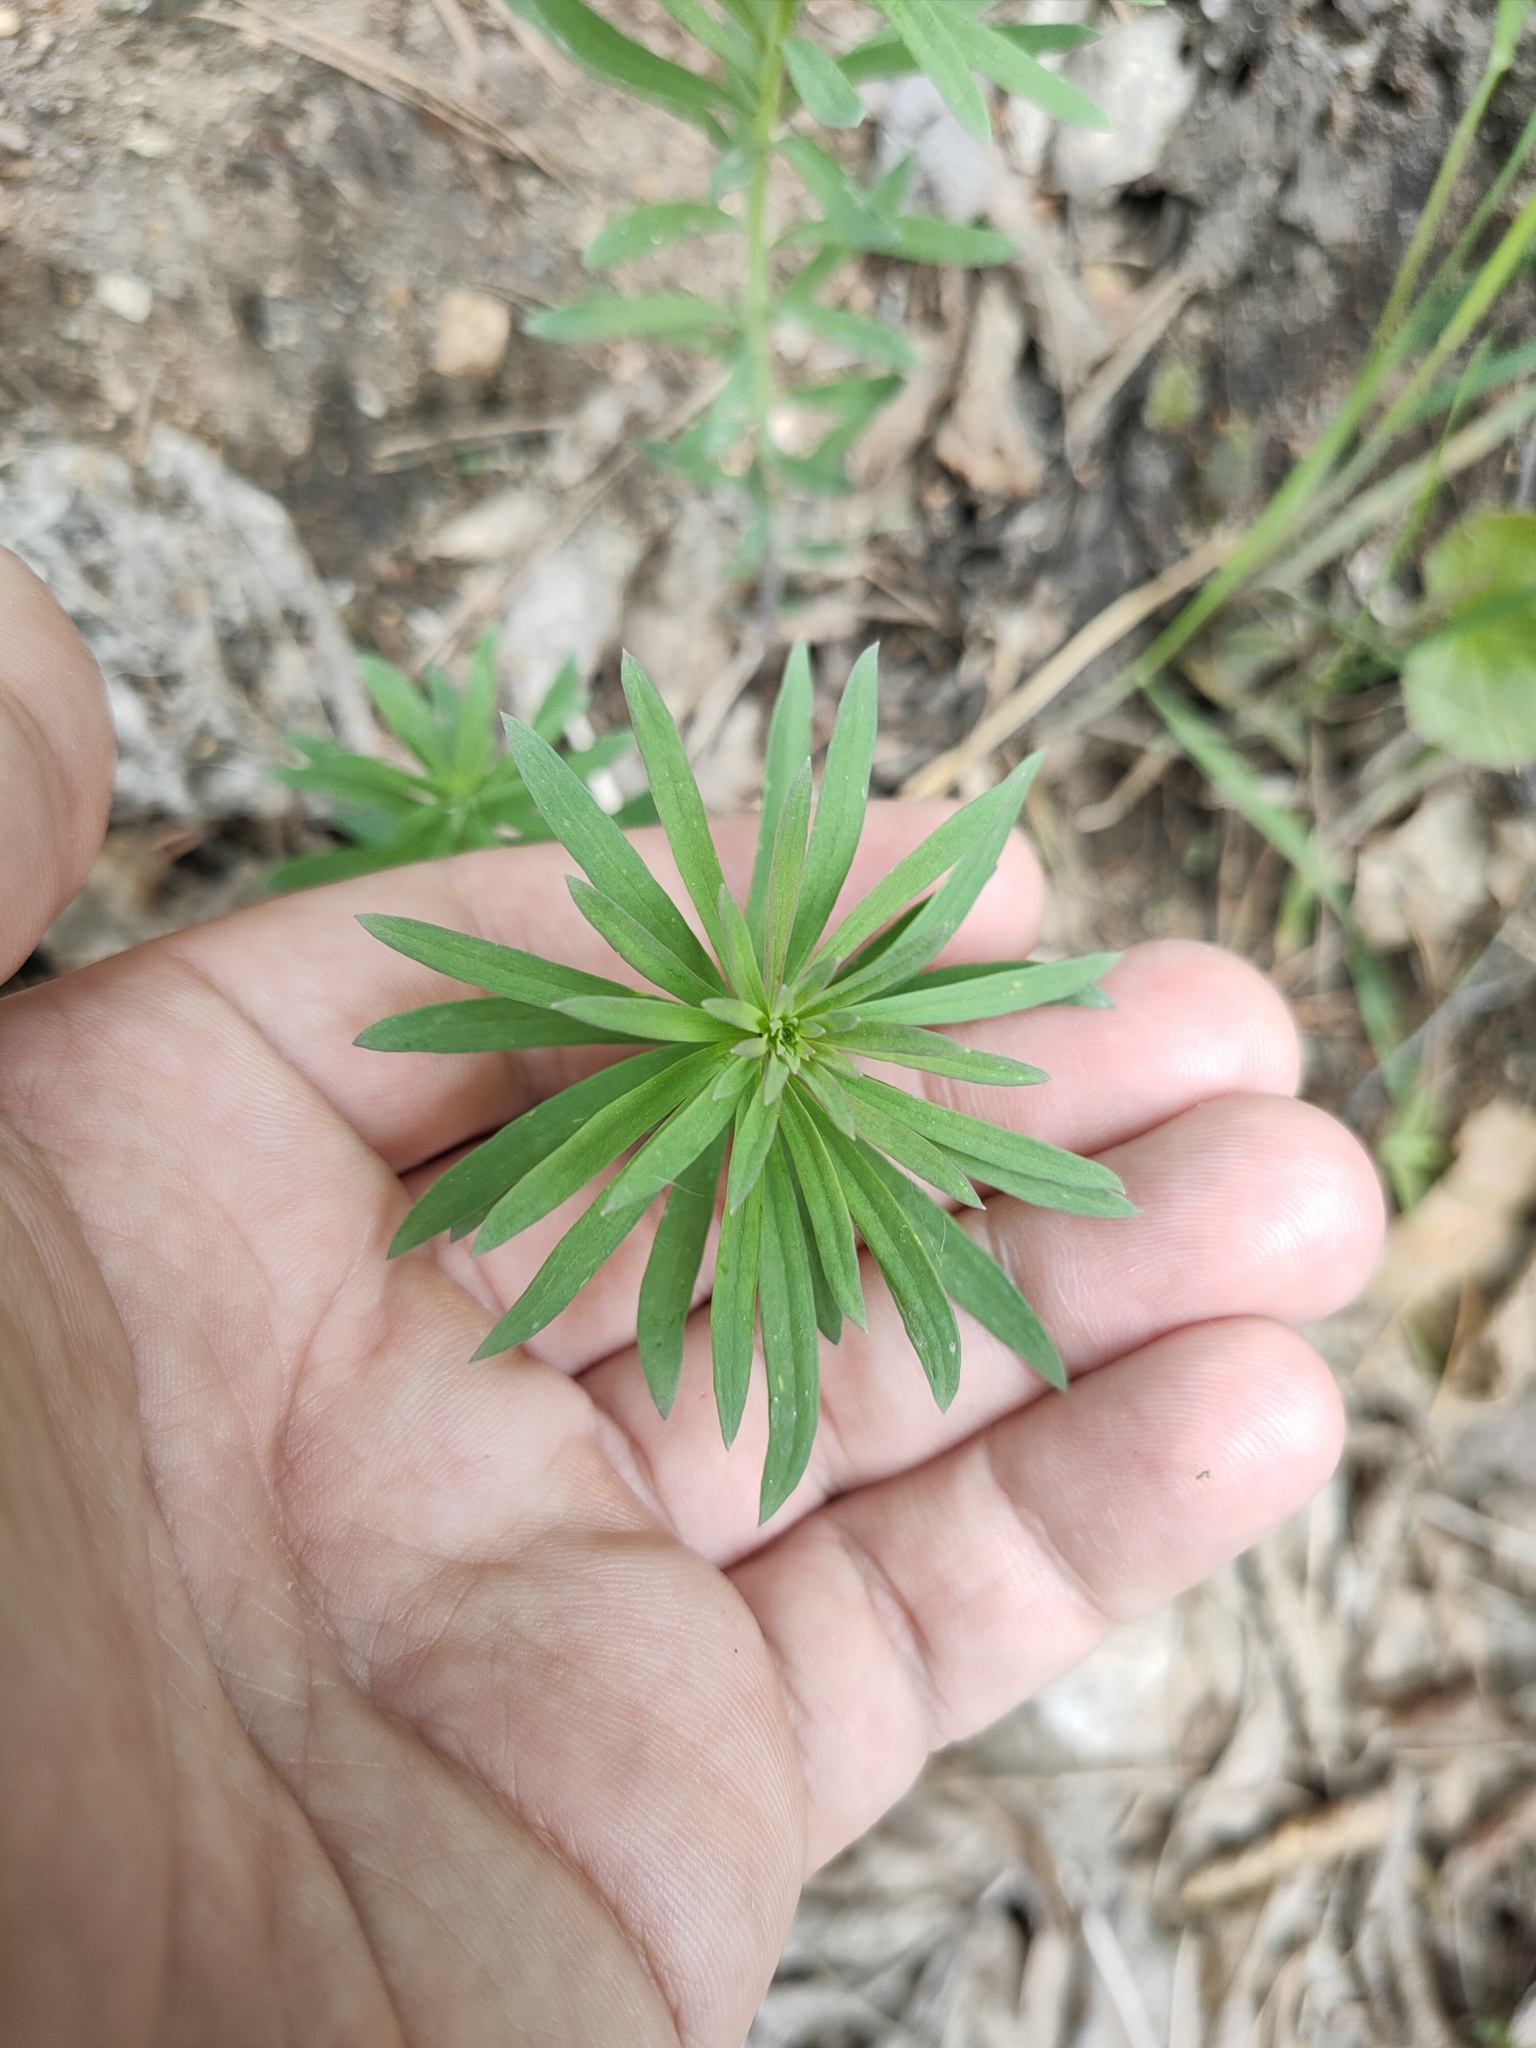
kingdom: Plantae
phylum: Tracheophyta
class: Magnoliopsida
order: Lamiales
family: Plantaginaceae
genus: Linaria
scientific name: Linaria vulgaris
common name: Butter and eggs
